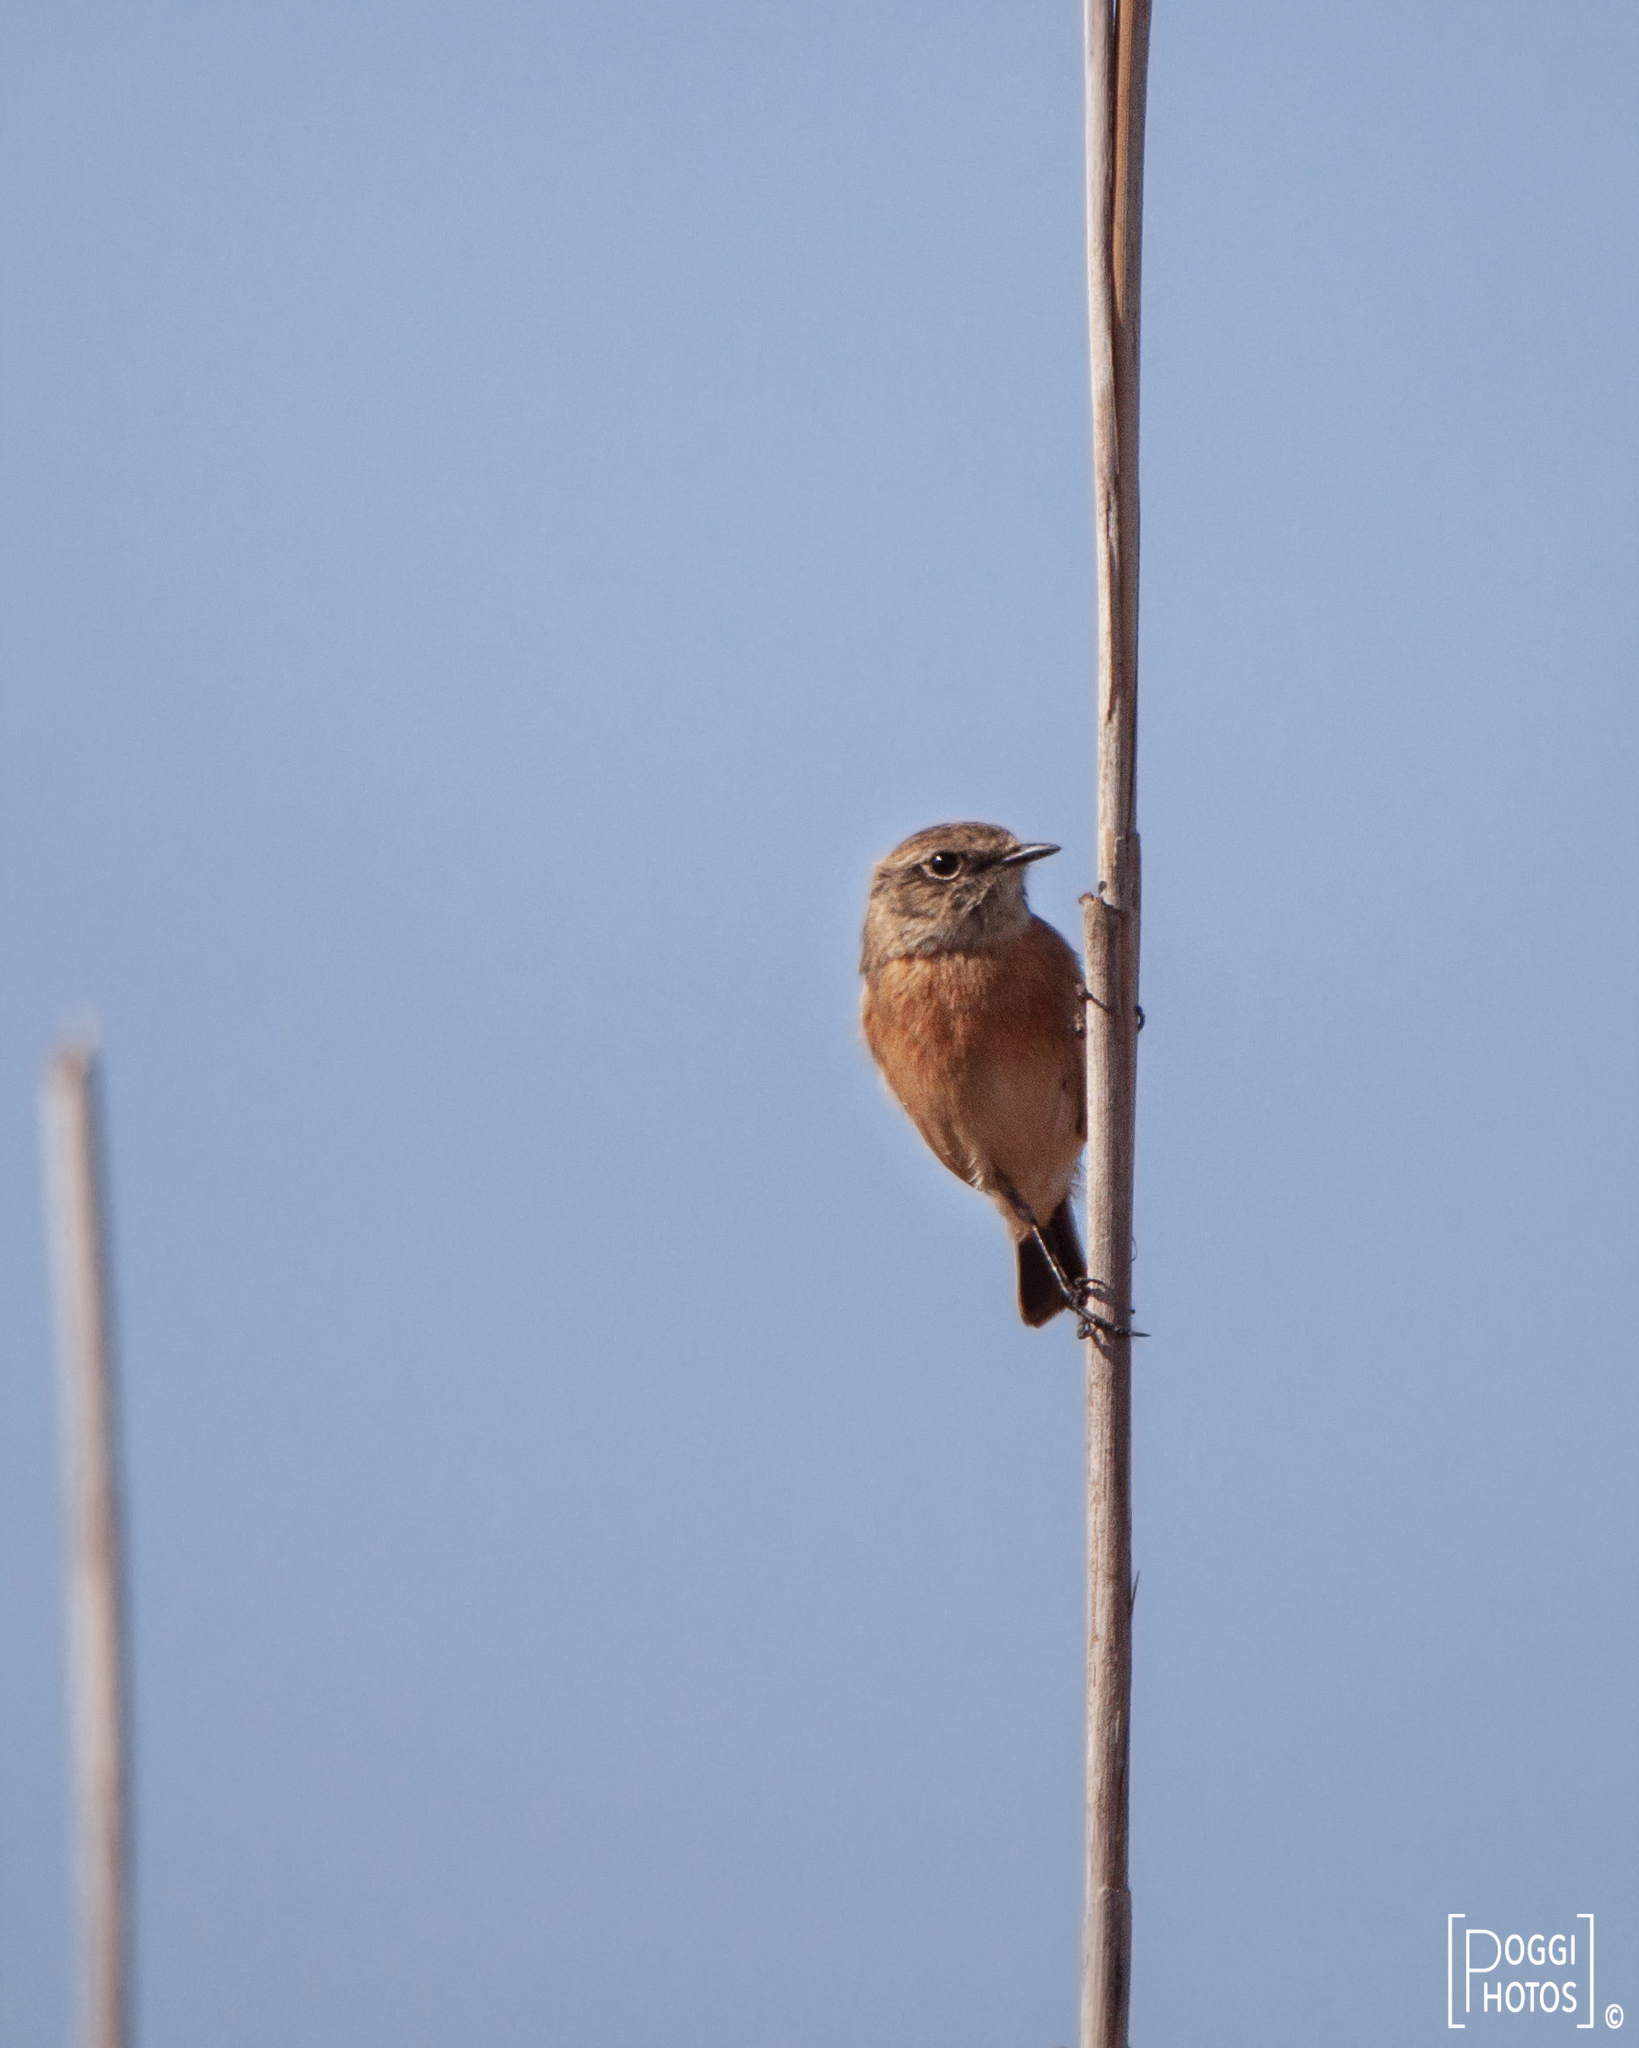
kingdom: Animalia
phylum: Chordata
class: Aves
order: Passeriformes
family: Muscicapidae
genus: Saxicola
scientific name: Saxicola rubicola
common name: European stonechat
